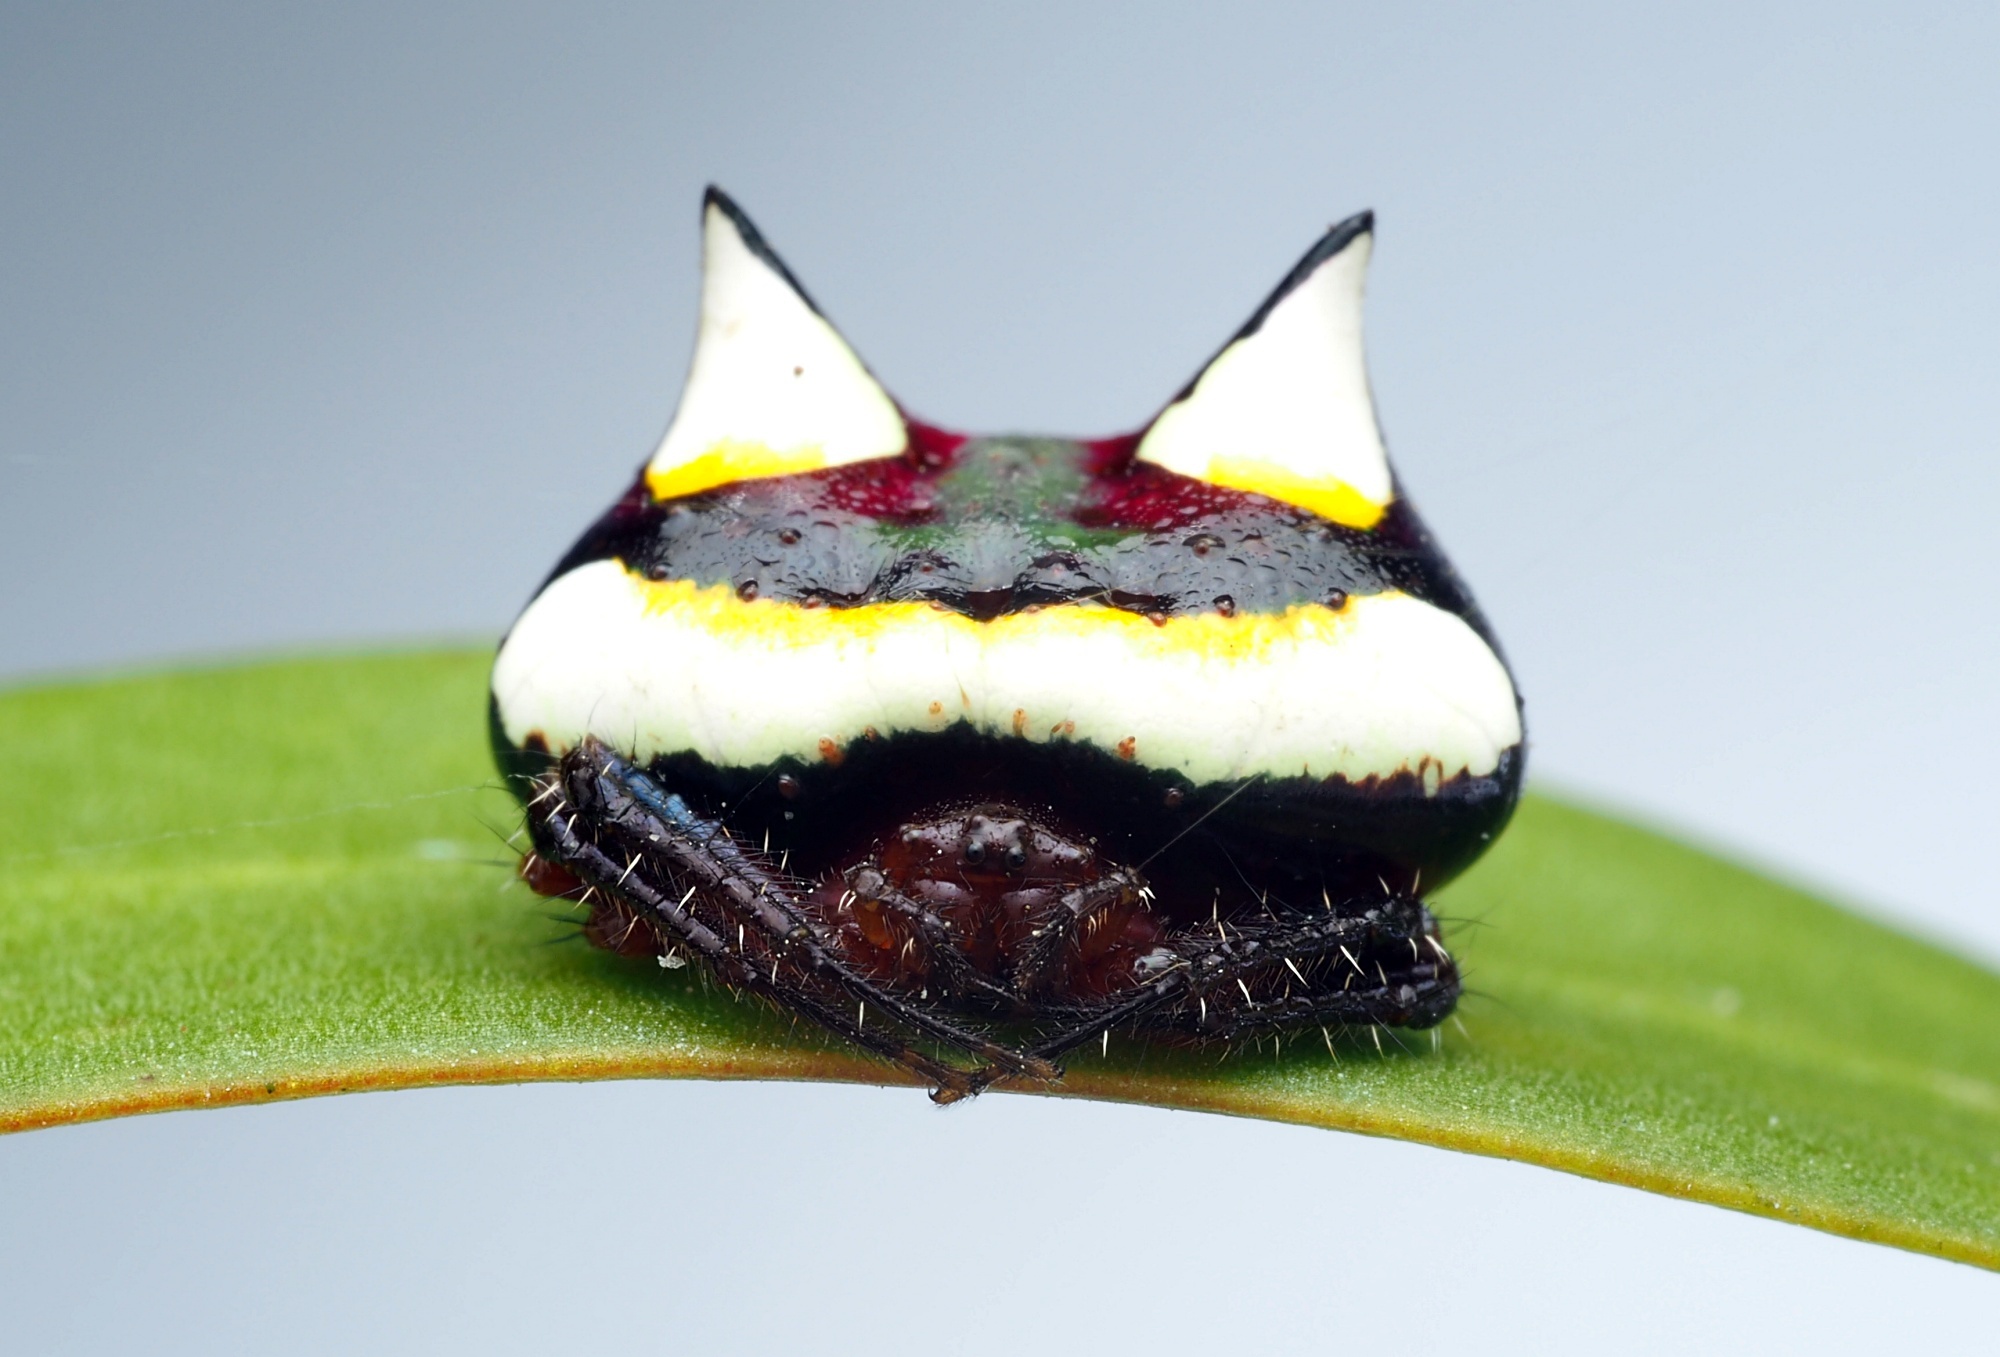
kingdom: Animalia
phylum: Arthropoda
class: Arachnida
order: Araneae
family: Araneidae
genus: Poecilopachys
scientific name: Poecilopachys australasia
